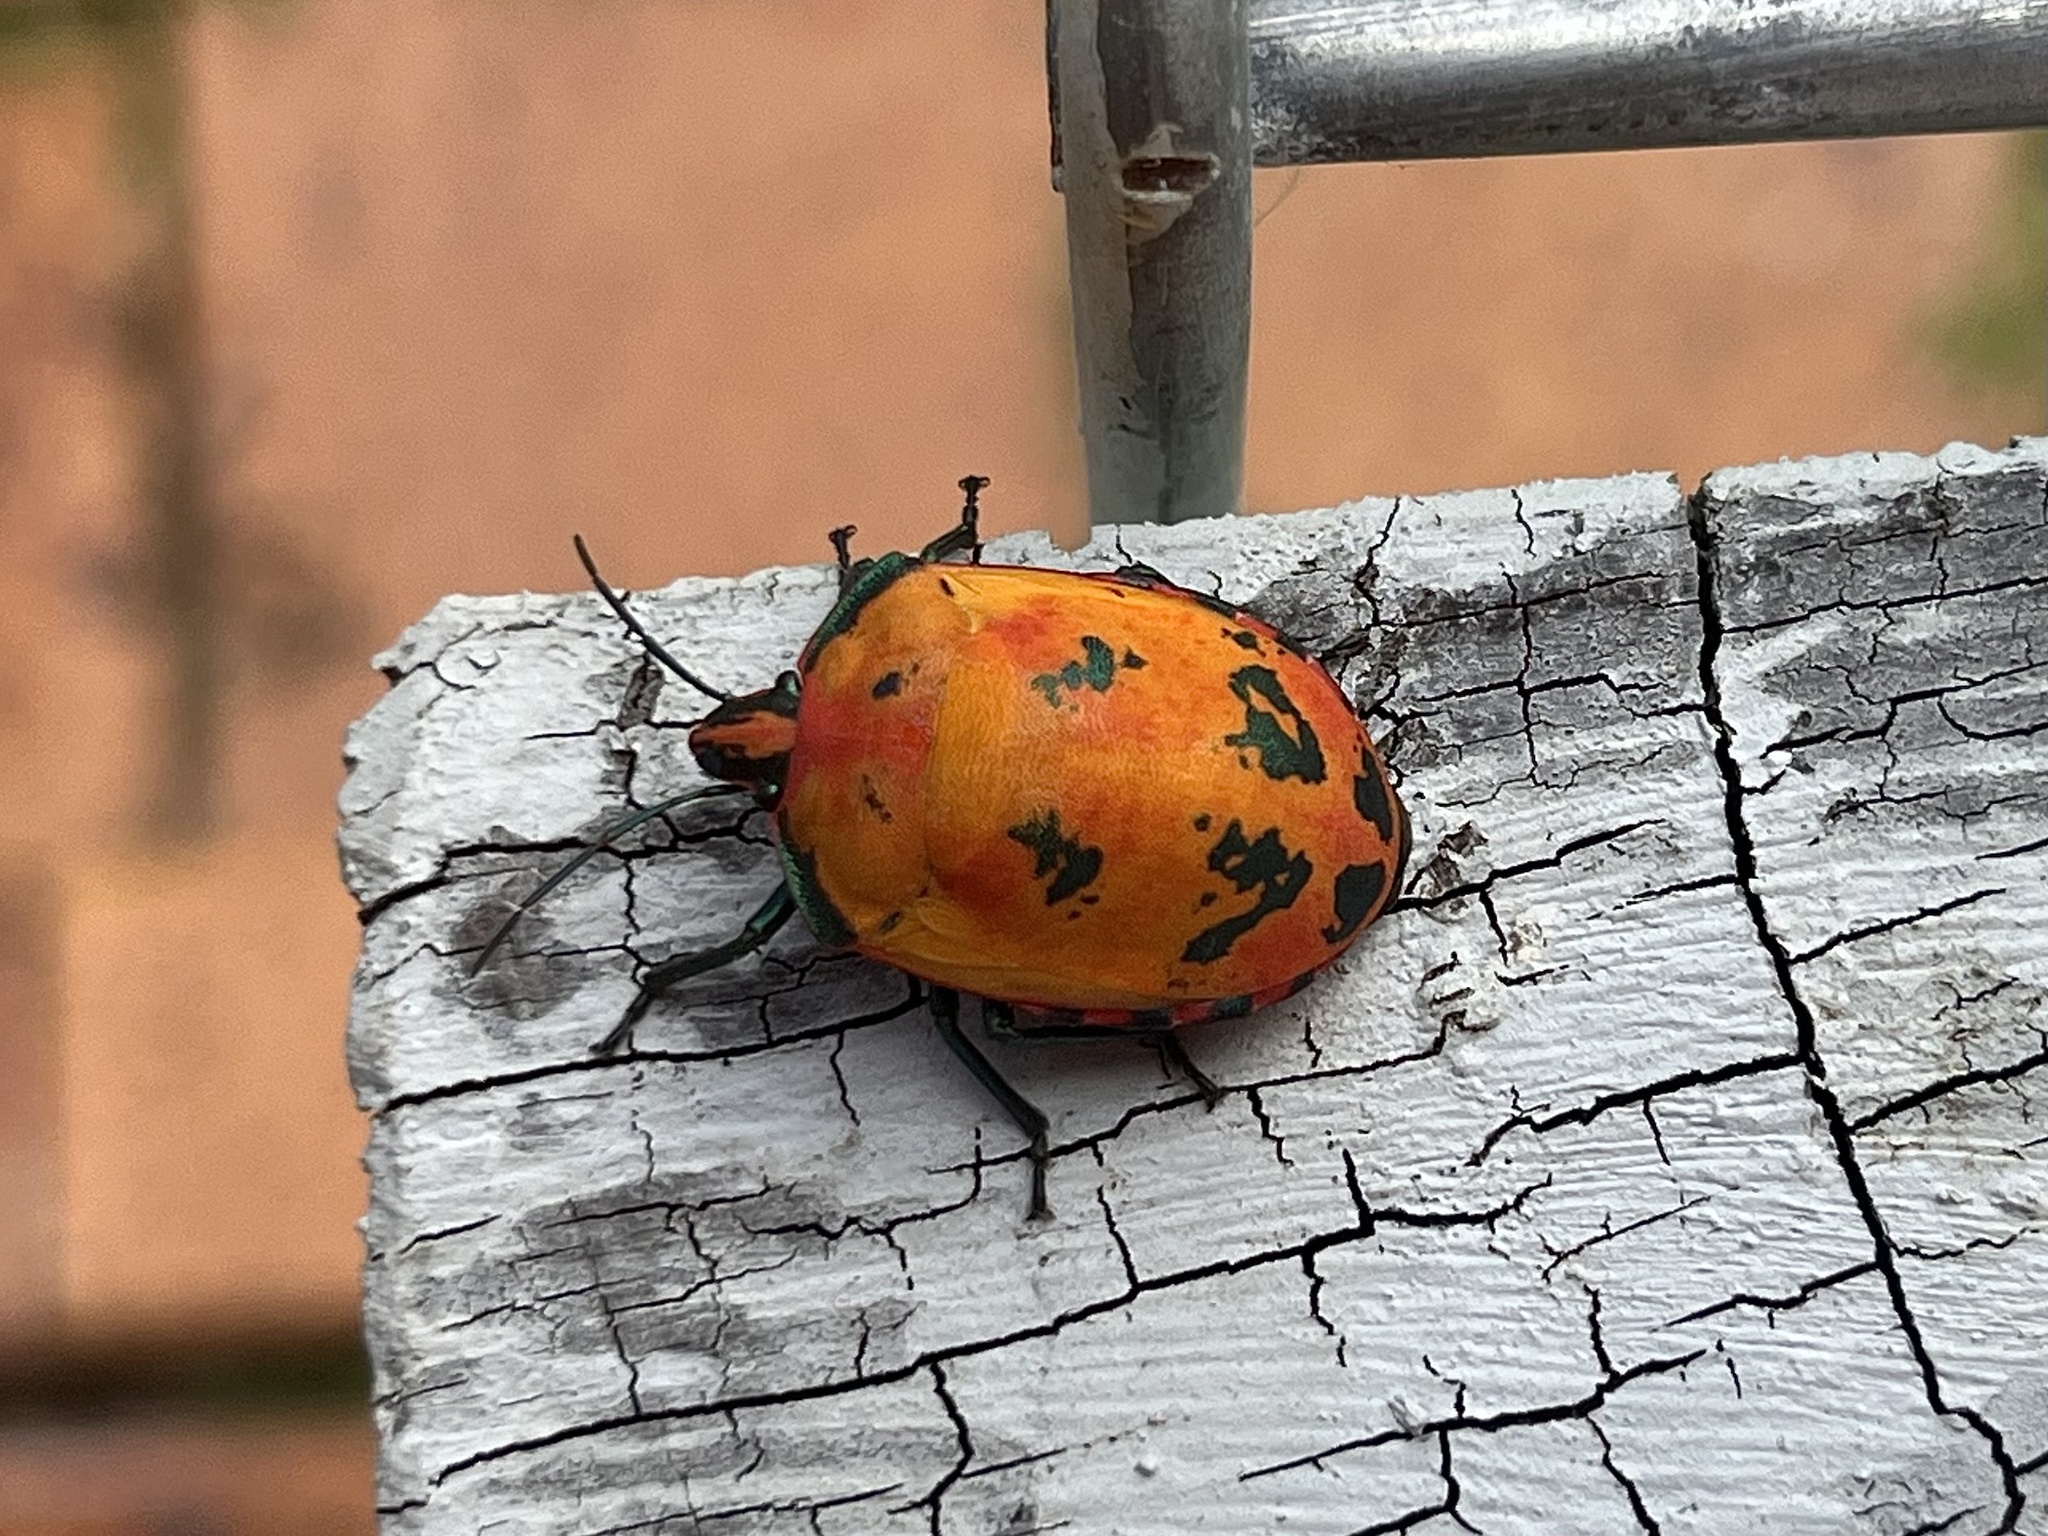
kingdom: Animalia
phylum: Arthropoda
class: Insecta
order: Hemiptera
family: Scutelleridae
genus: Tectocoris
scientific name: Tectocoris diophthalmus
